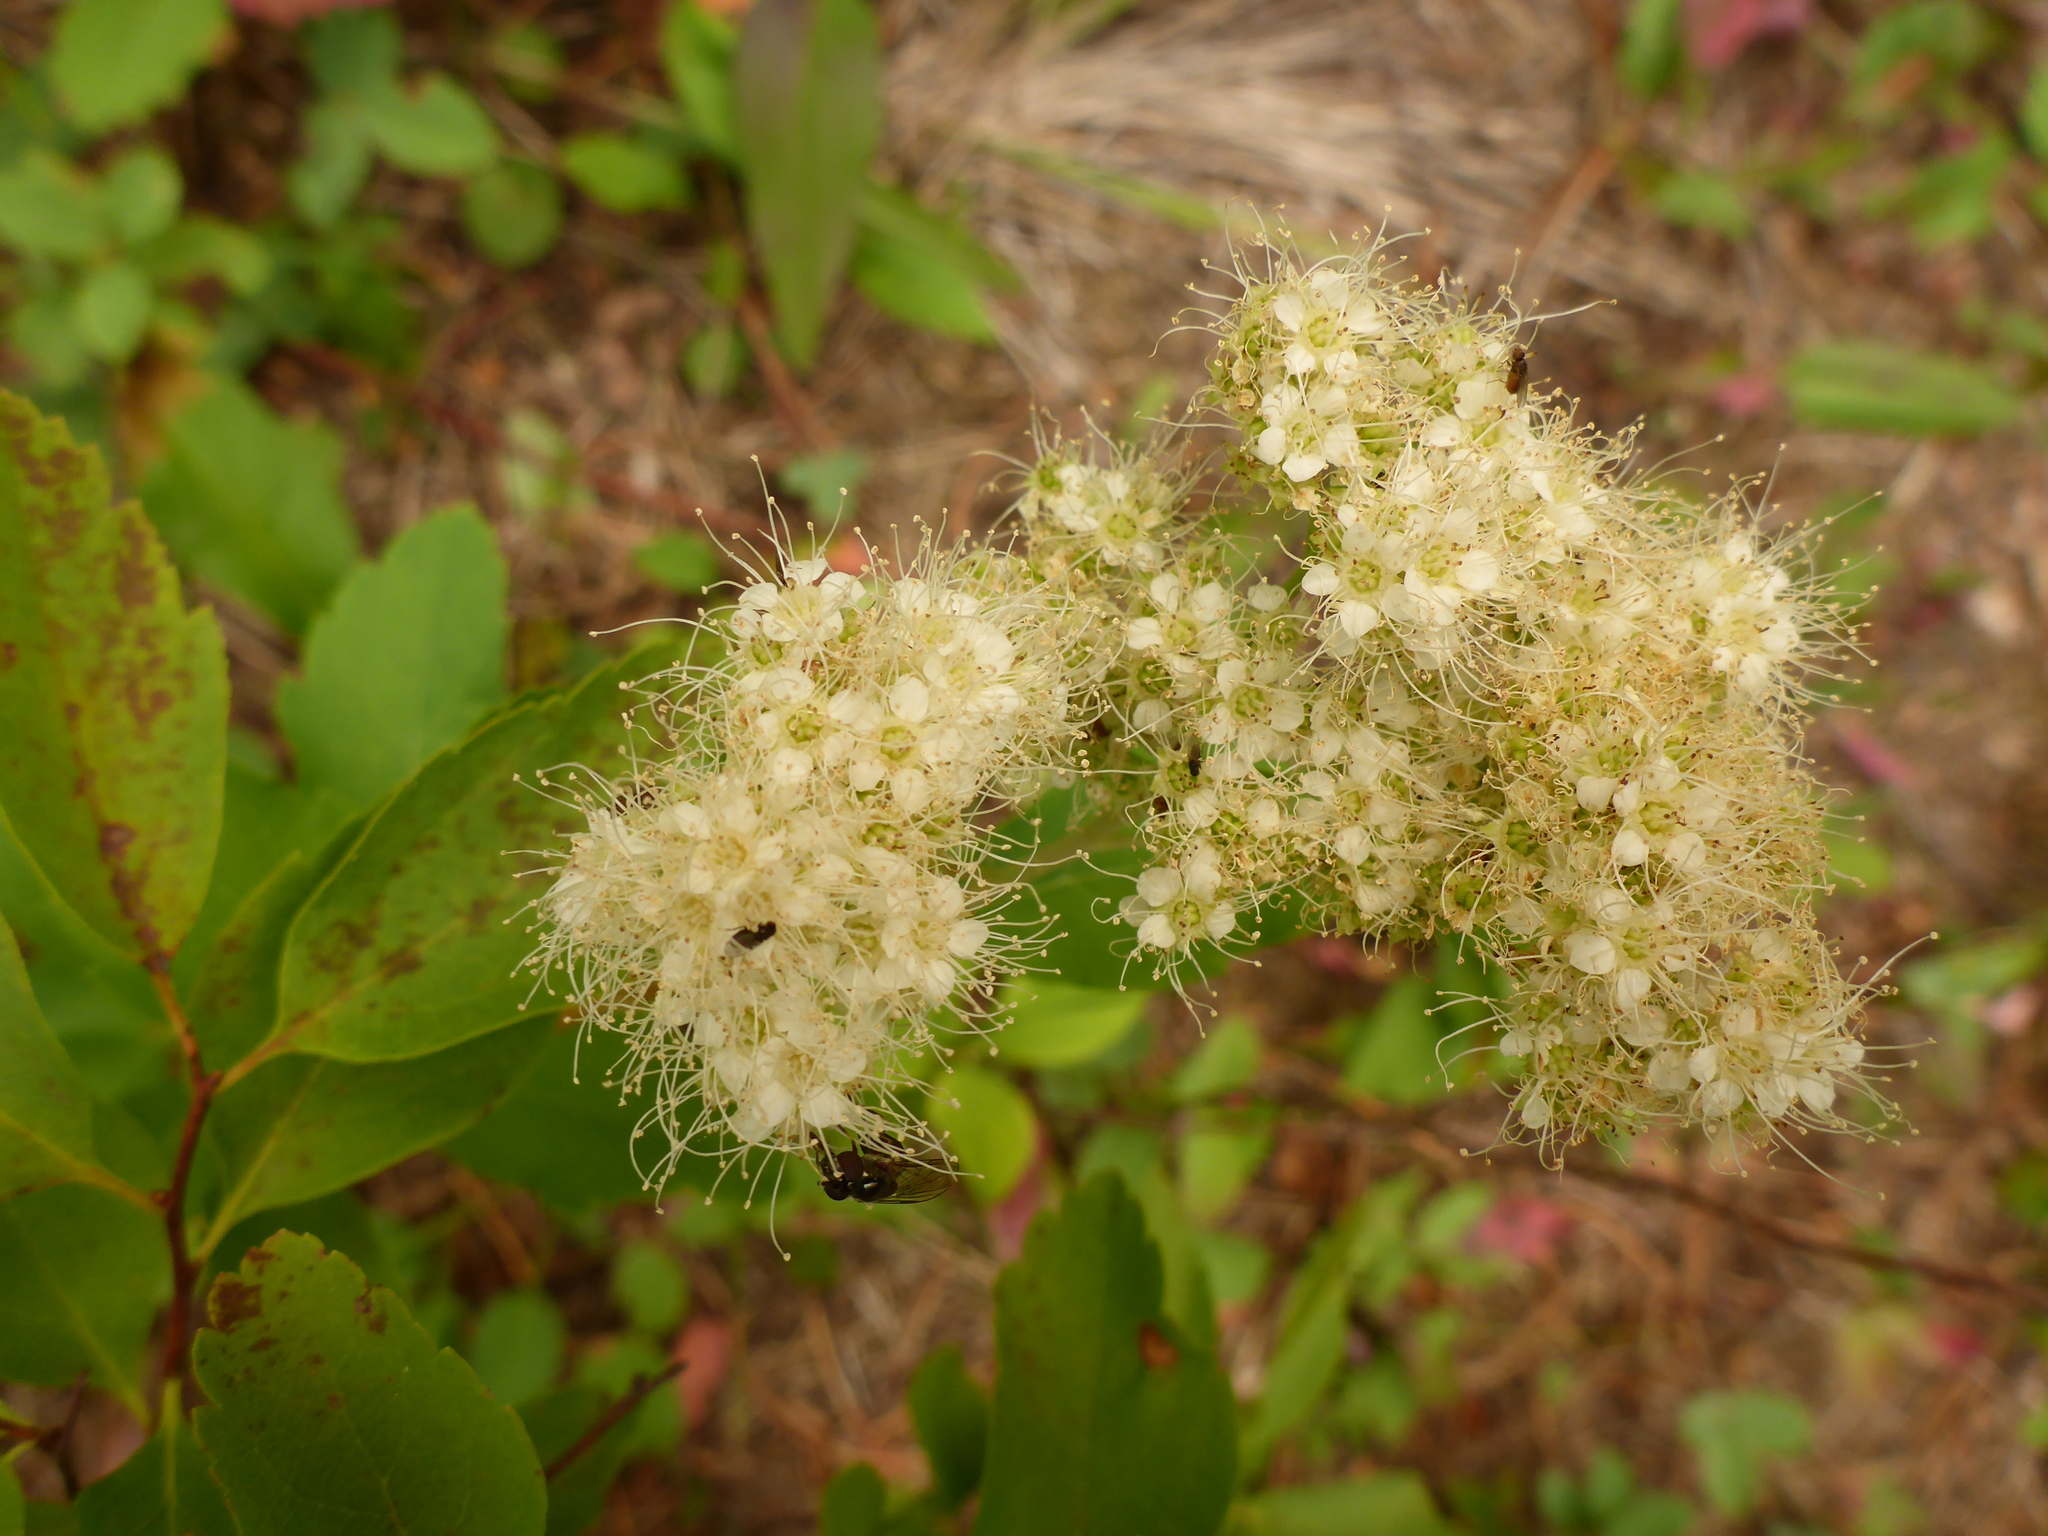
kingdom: Plantae
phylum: Tracheophyta
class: Magnoliopsida
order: Rosales
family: Rosaceae
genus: Spiraea
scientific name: Spiraea lucida
